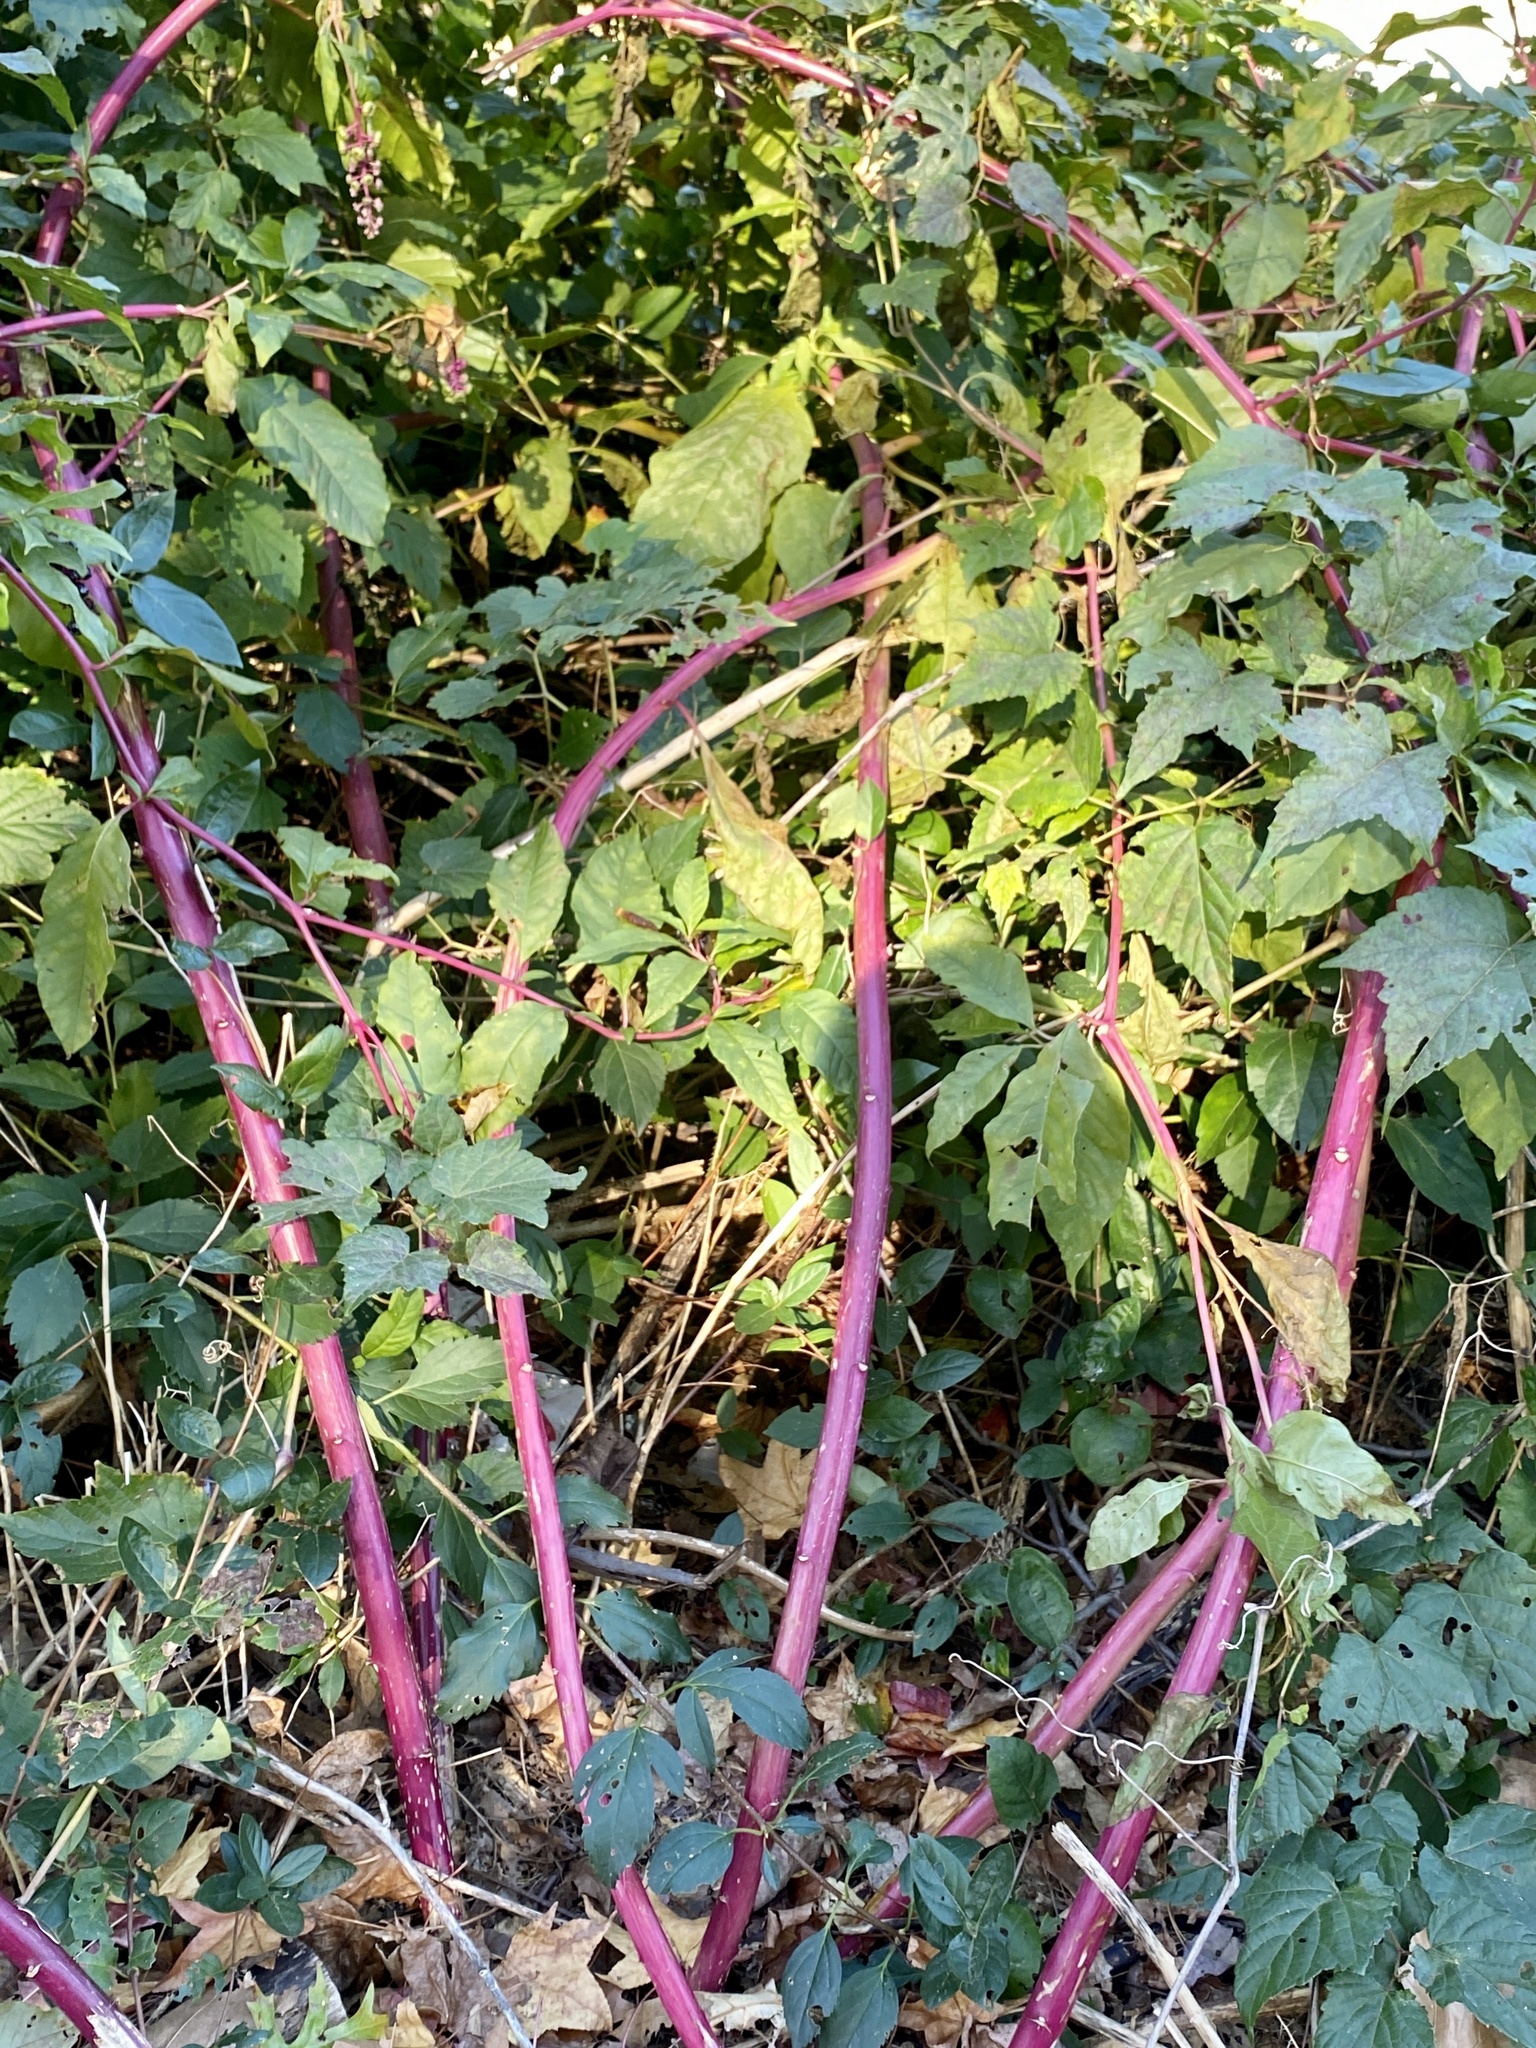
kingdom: Plantae
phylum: Tracheophyta
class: Magnoliopsida
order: Caryophyllales
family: Phytolaccaceae
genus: Phytolacca
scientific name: Phytolacca americana
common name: American pokeweed
